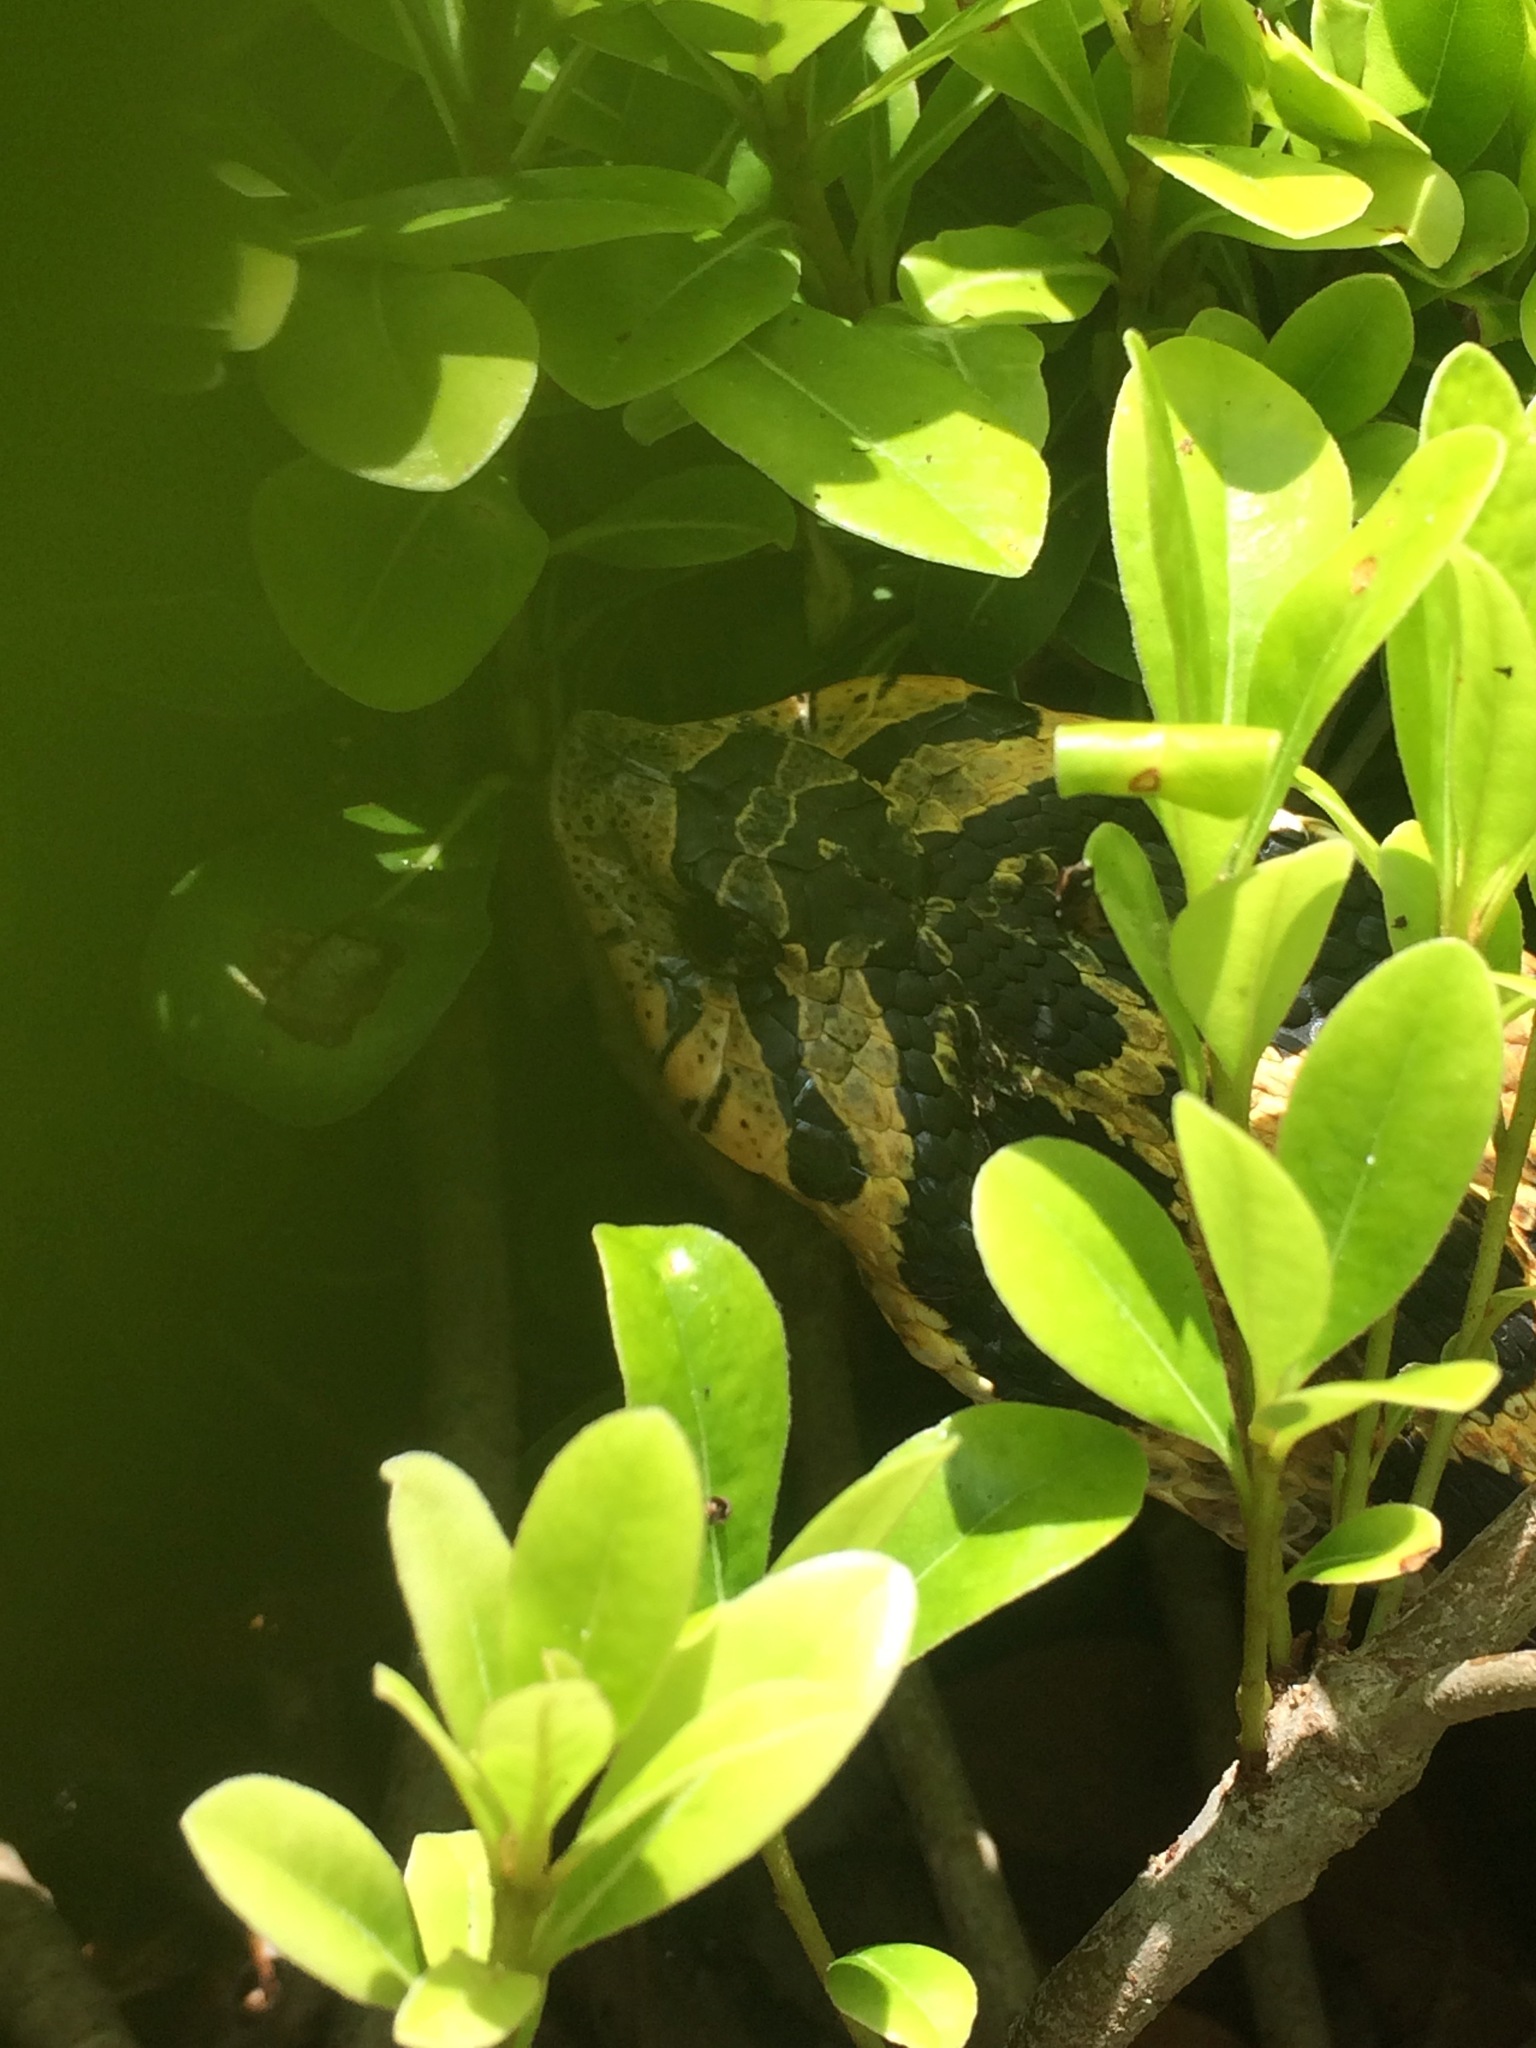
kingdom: Animalia
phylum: Chordata
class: Squamata
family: Colubridae
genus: Heterodon
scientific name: Heterodon platirhinos
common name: Eastern hognose snake
